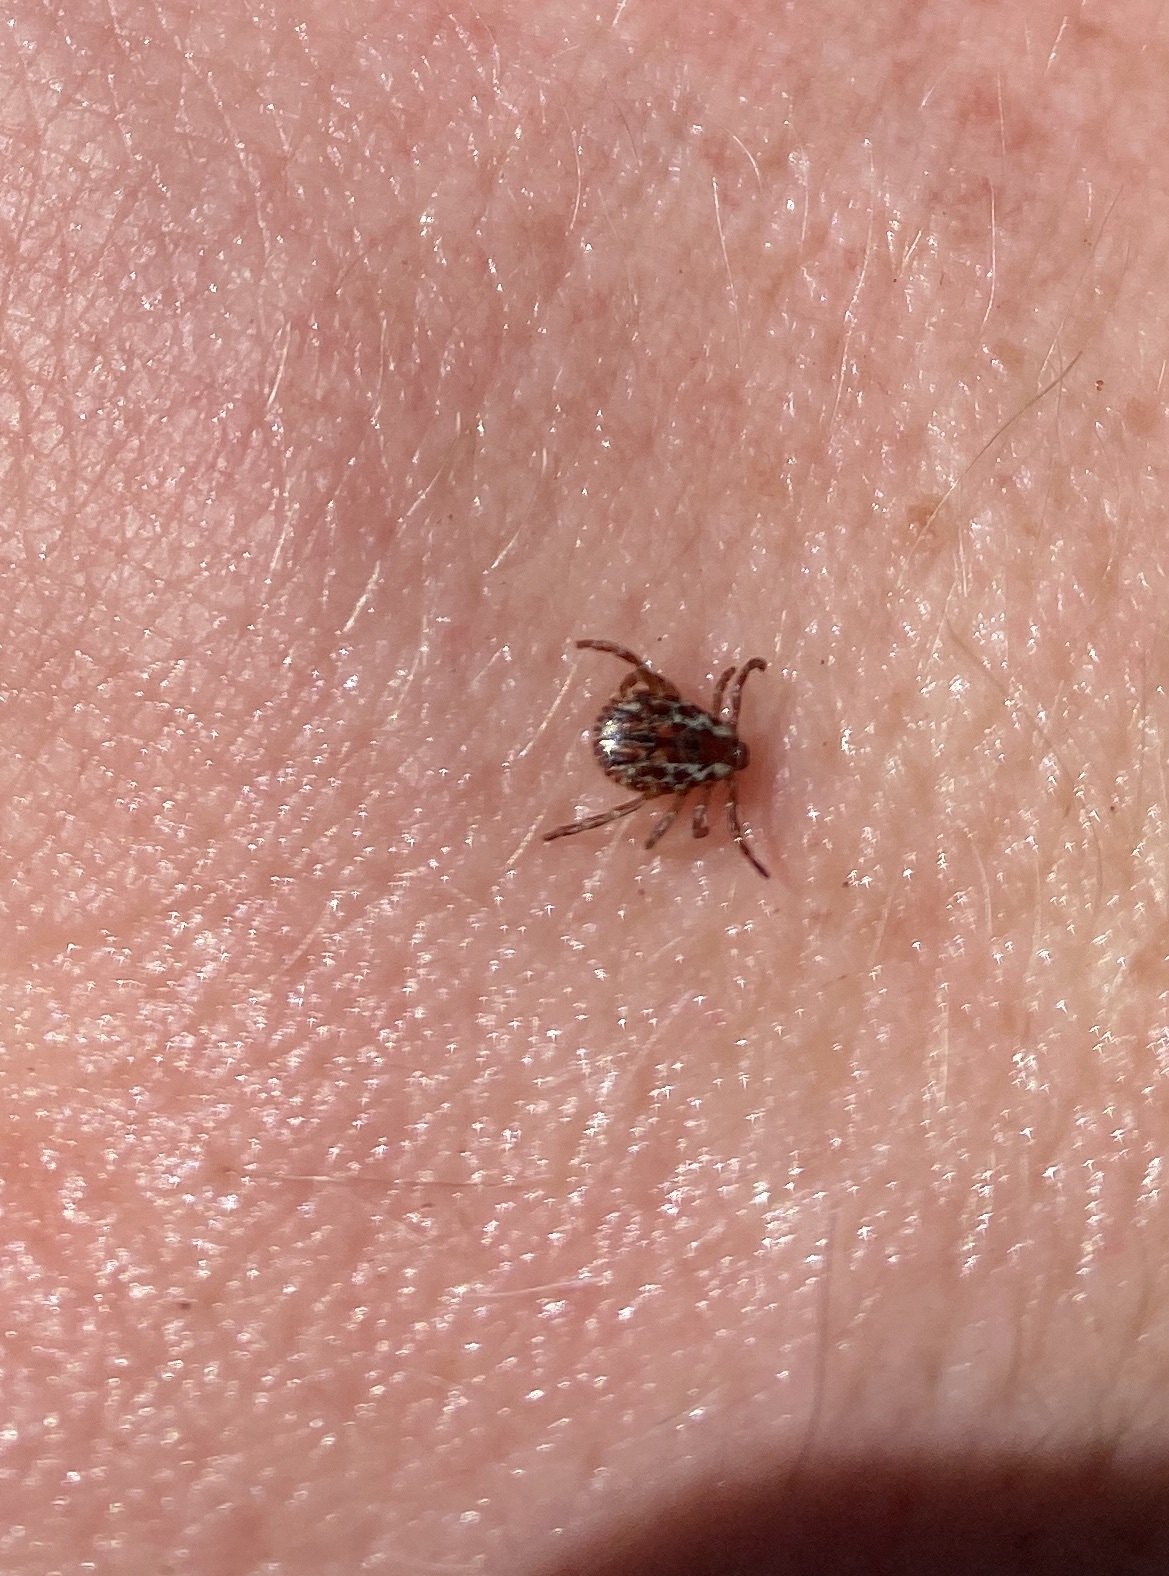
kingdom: Animalia
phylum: Arthropoda
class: Arachnida
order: Ixodida
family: Ixodidae
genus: Dermacentor
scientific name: Dermacentor variabilis
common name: American dog tick
